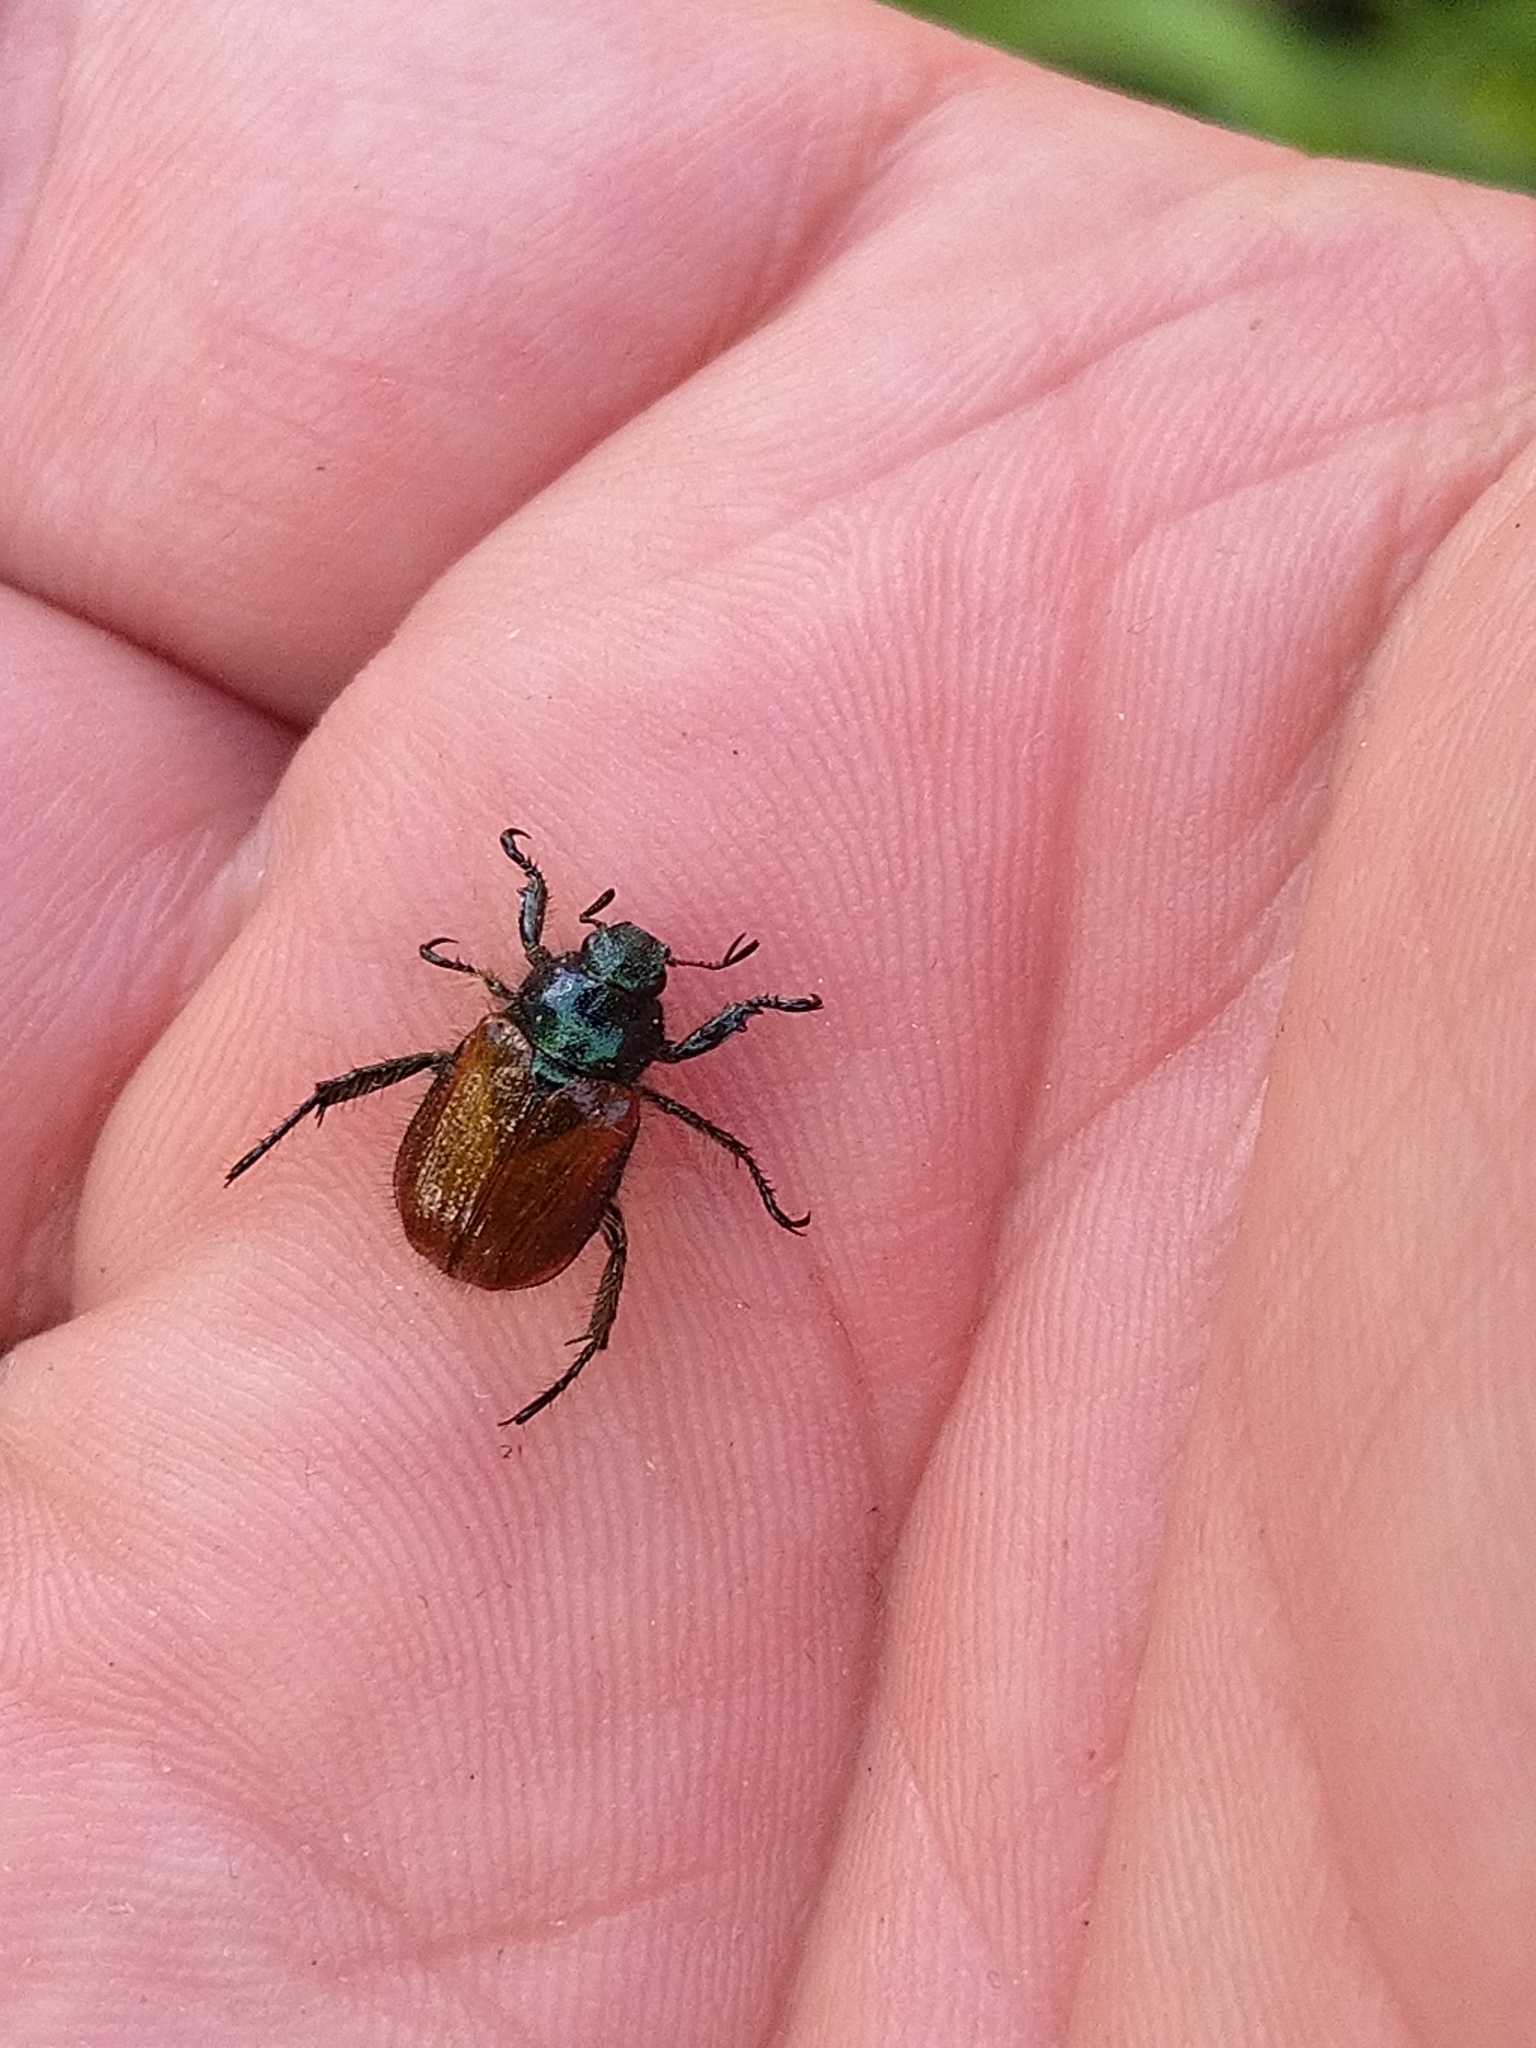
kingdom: Animalia
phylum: Arthropoda
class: Insecta
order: Coleoptera
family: Scarabaeidae
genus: Phyllopertha
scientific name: Phyllopertha horticola
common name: Garden chafer
